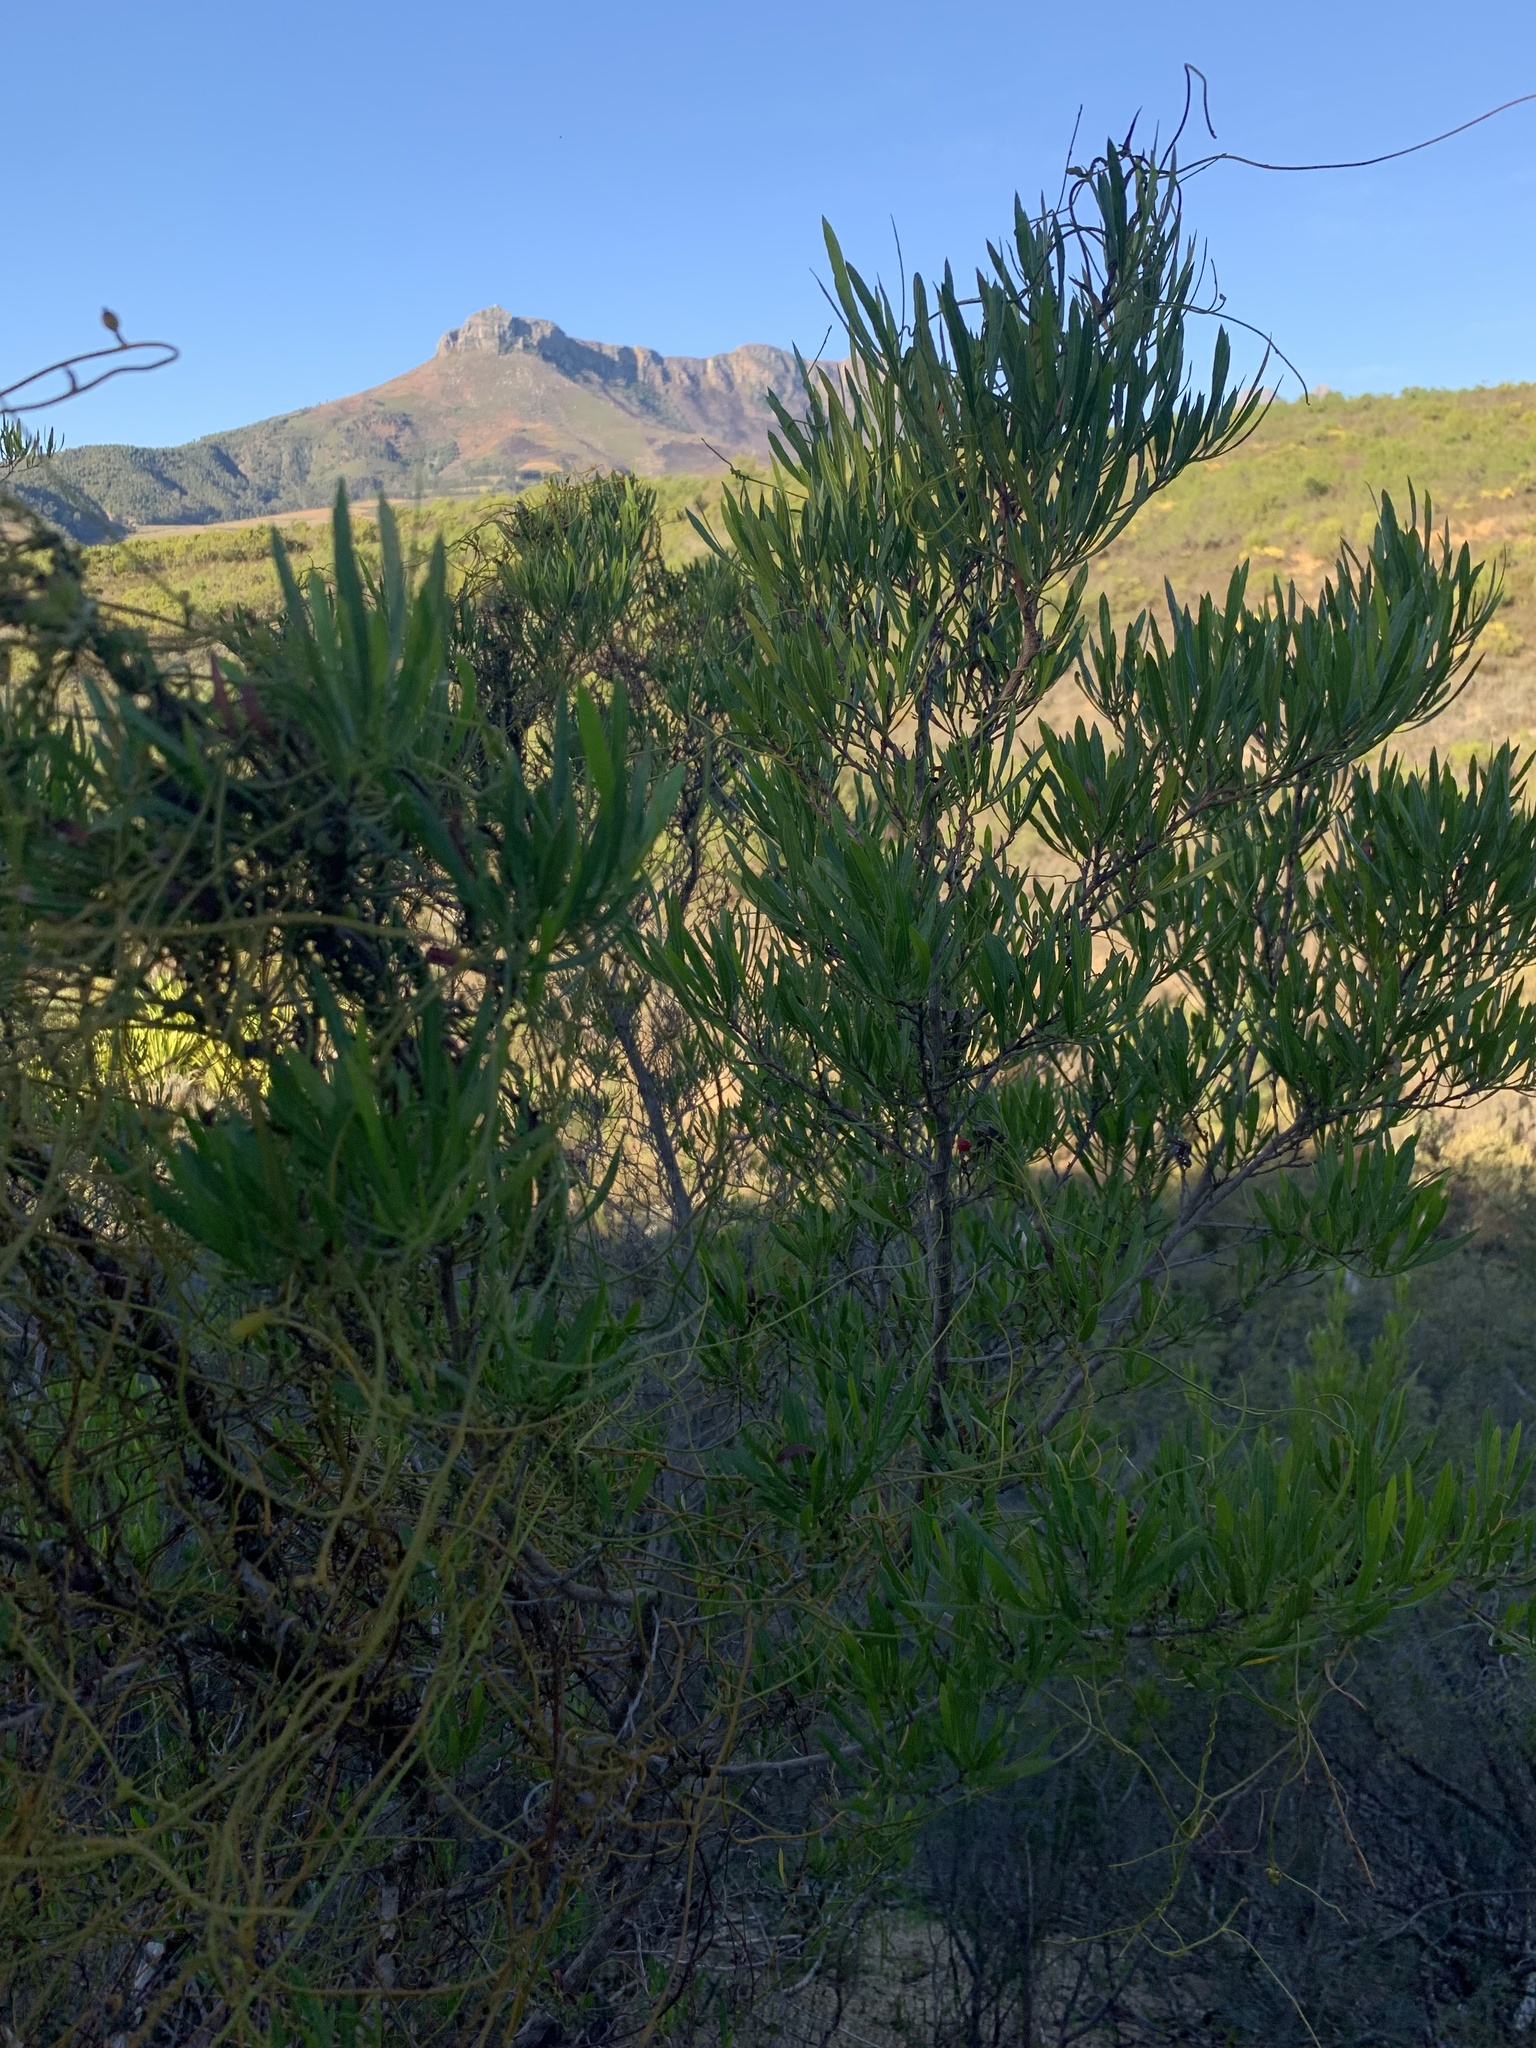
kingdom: Plantae
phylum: Tracheophyta
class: Magnoliopsida
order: Sapindales
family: Sapindaceae
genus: Dodonaea
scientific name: Dodonaea viscosa
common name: Hopbush
